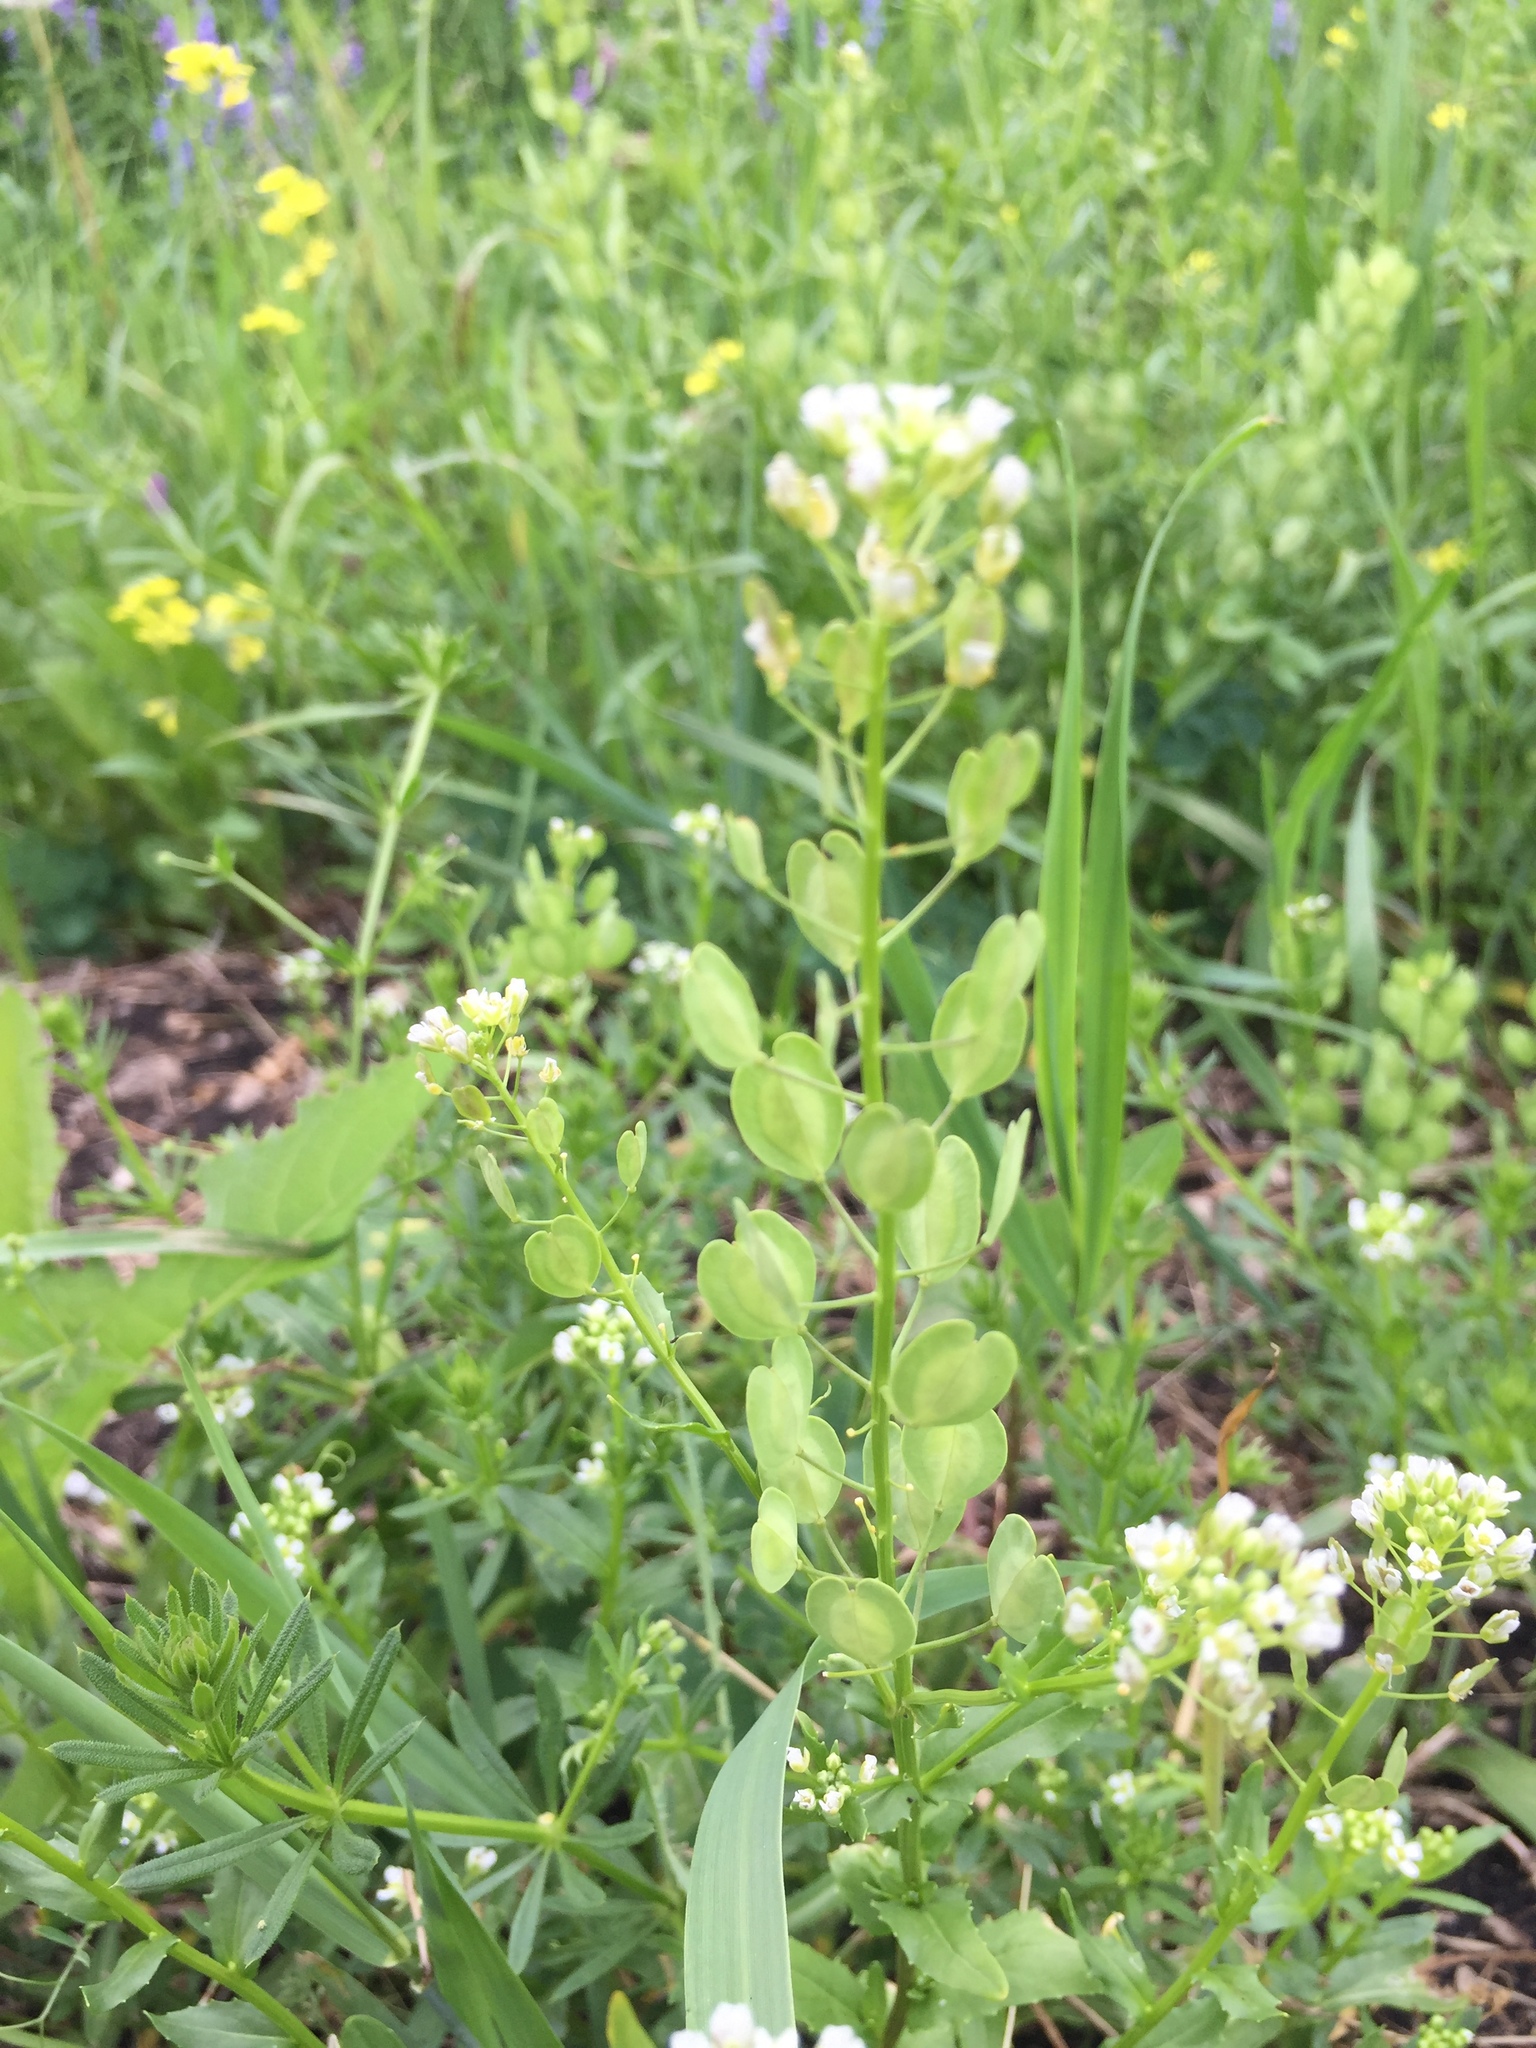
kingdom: Plantae
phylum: Tracheophyta
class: Magnoliopsida
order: Brassicales
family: Brassicaceae
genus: Thlaspi
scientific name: Thlaspi arvense
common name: Field pennycress
